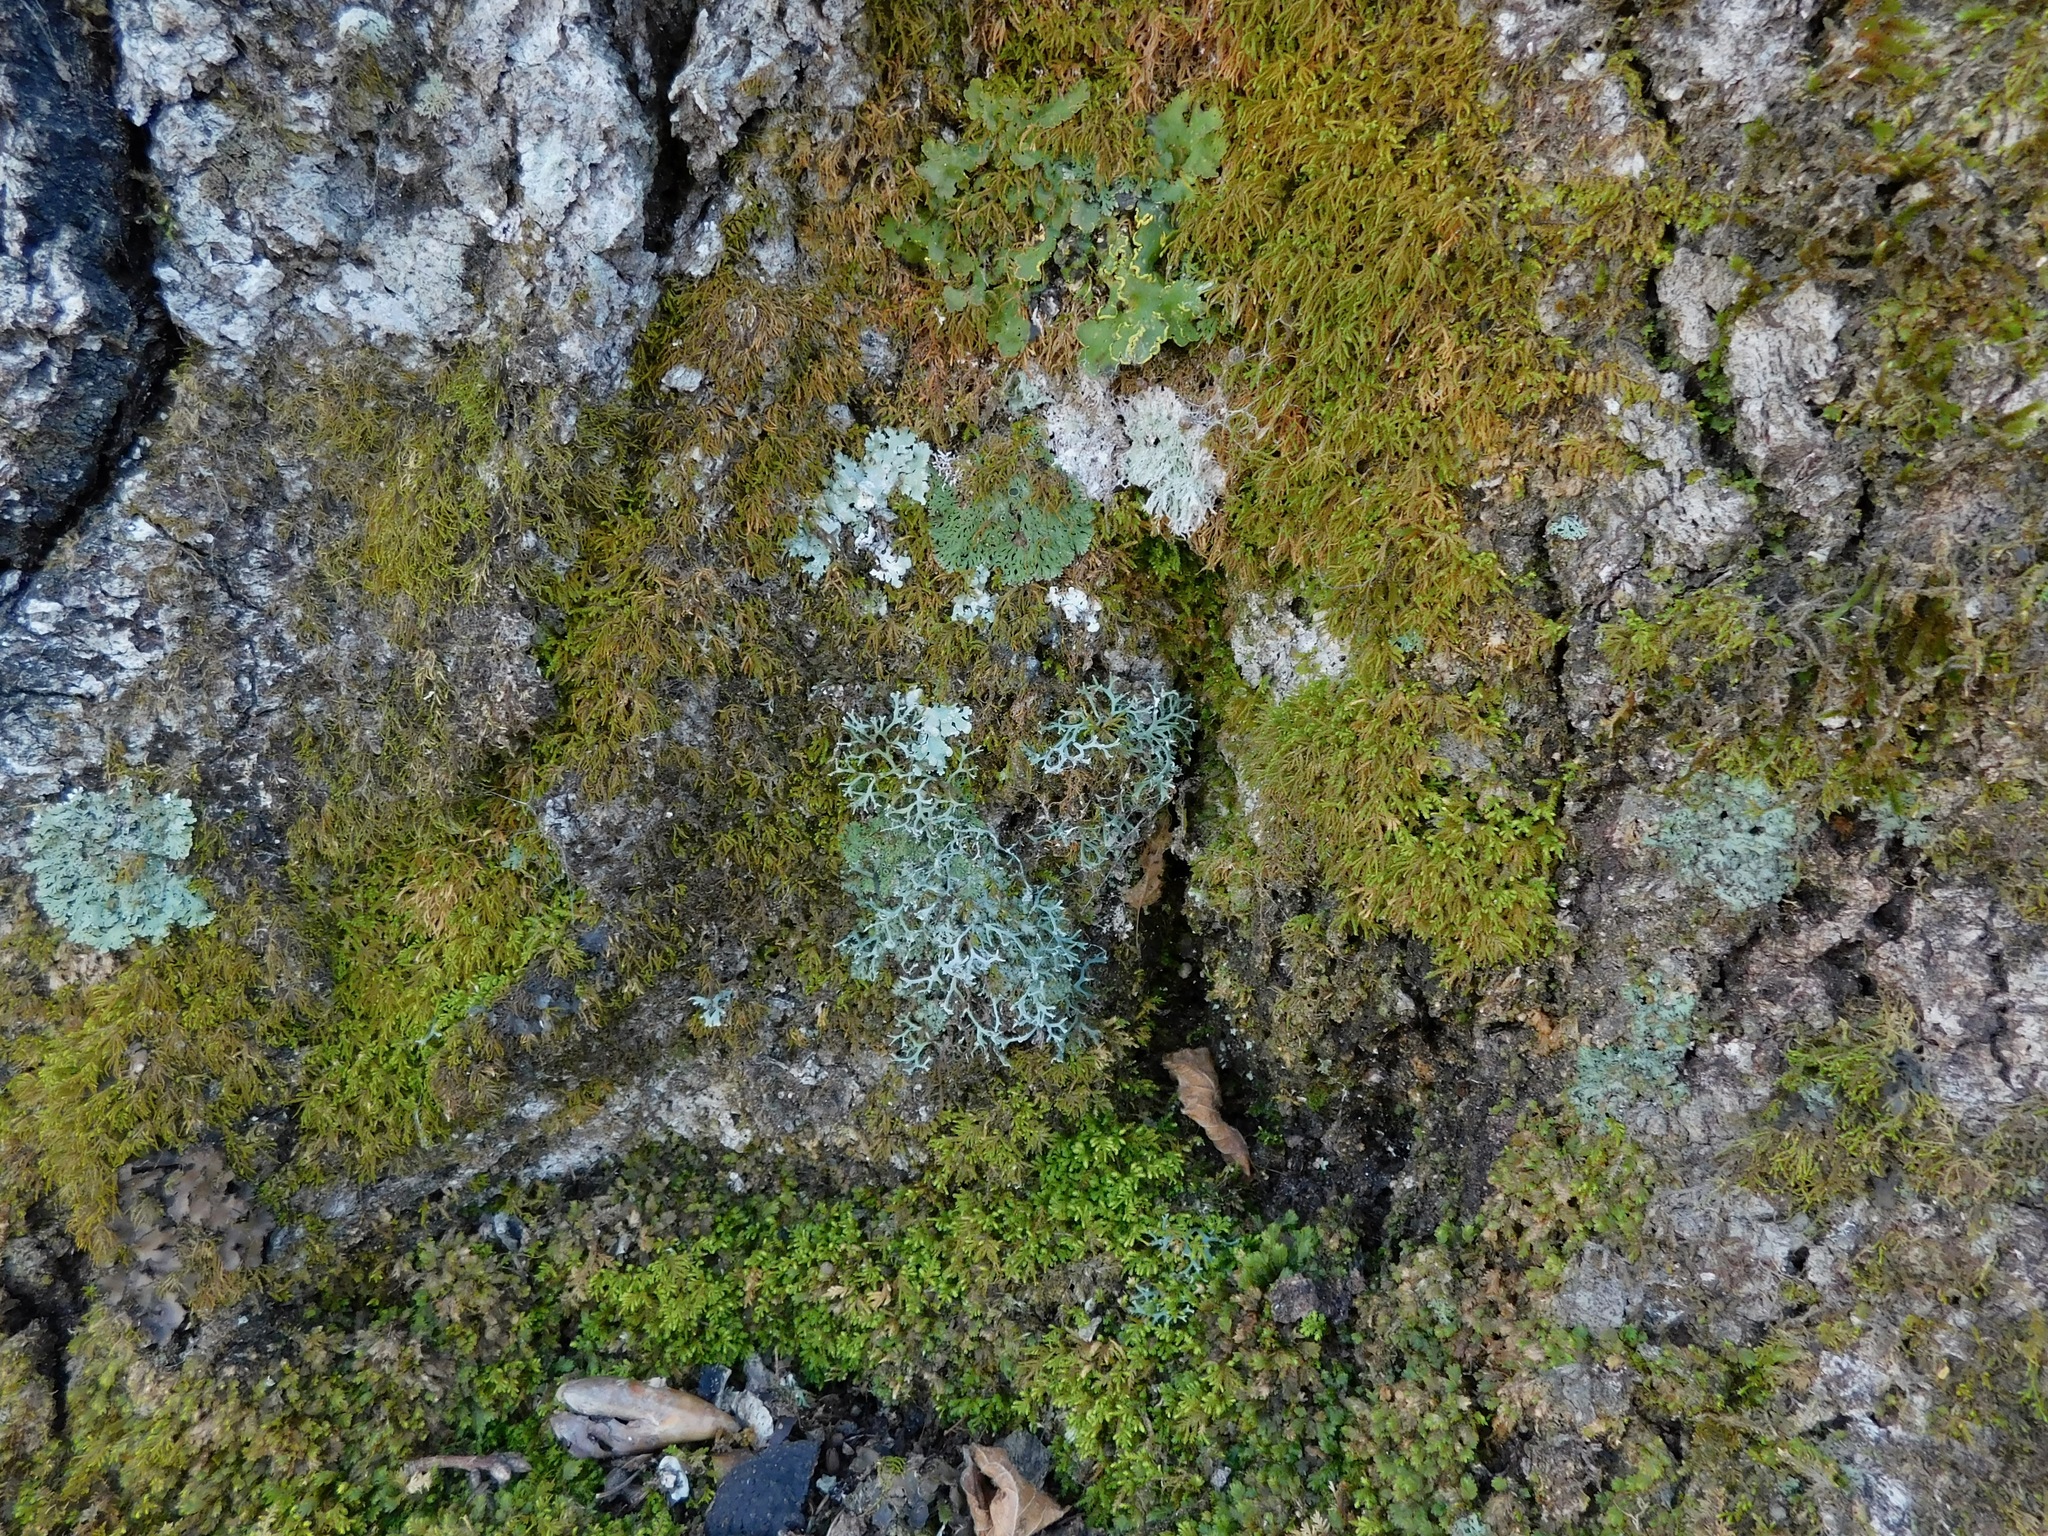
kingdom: Fungi
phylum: Ascomycota
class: Lecanoromycetes
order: Caliciales
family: Physciaceae
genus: Polyblastidium
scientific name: Polyblastidium casarettianum
